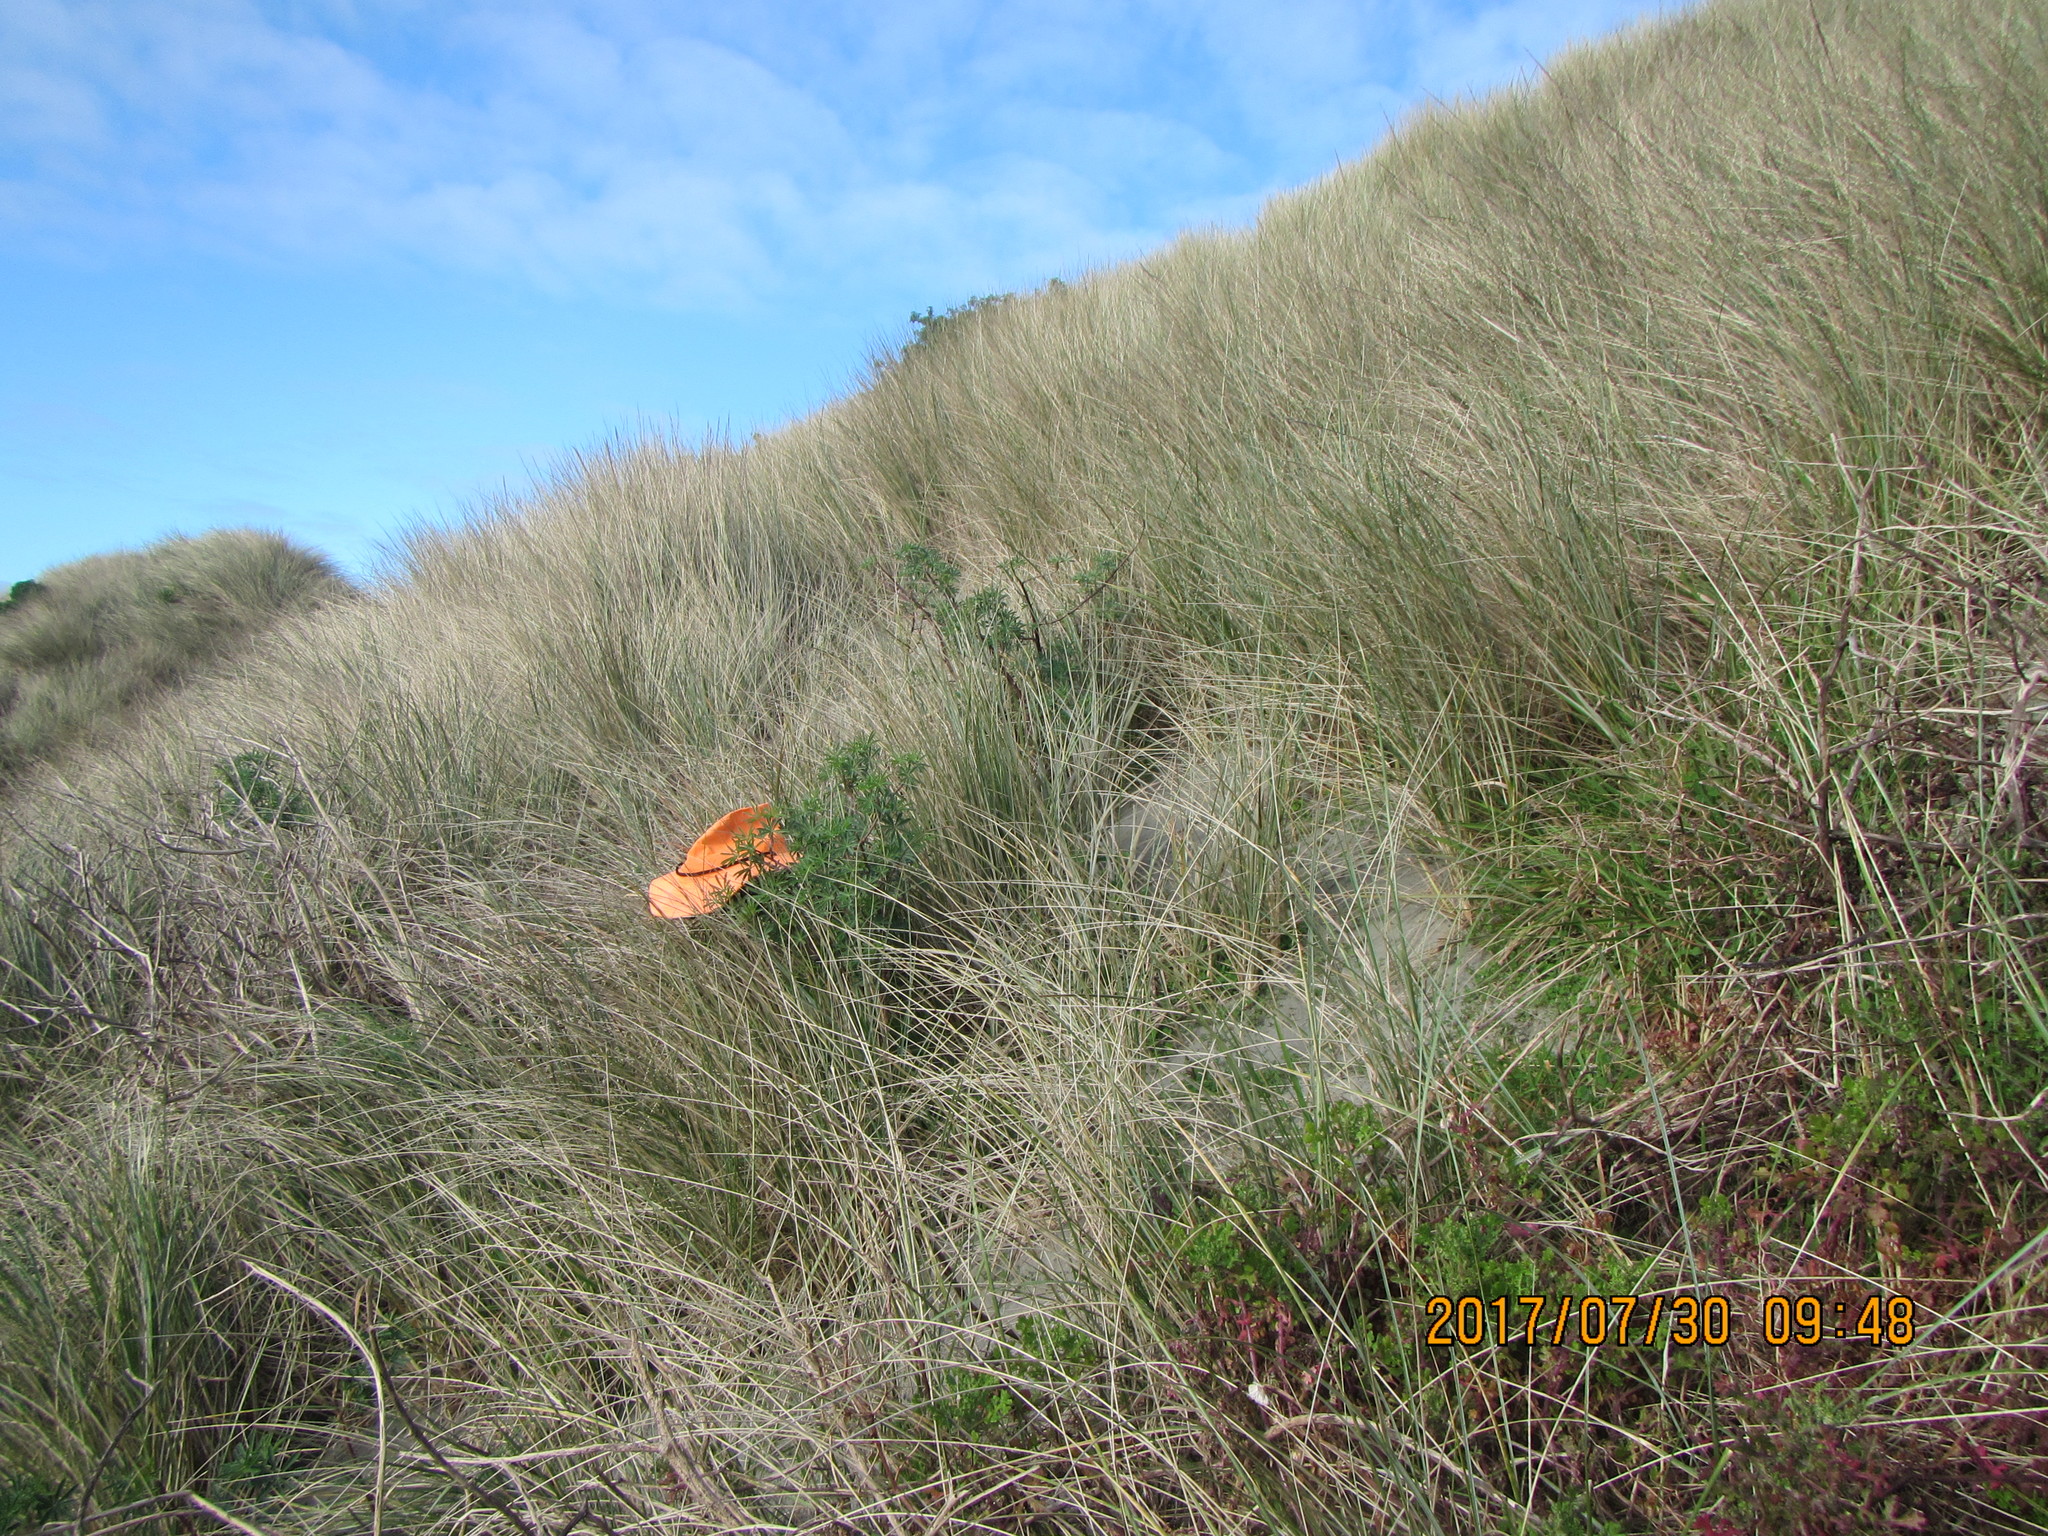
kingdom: Plantae
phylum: Tracheophyta
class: Liliopsida
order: Poales
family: Poaceae
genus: Spinifex
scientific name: Spinifex sericeus
